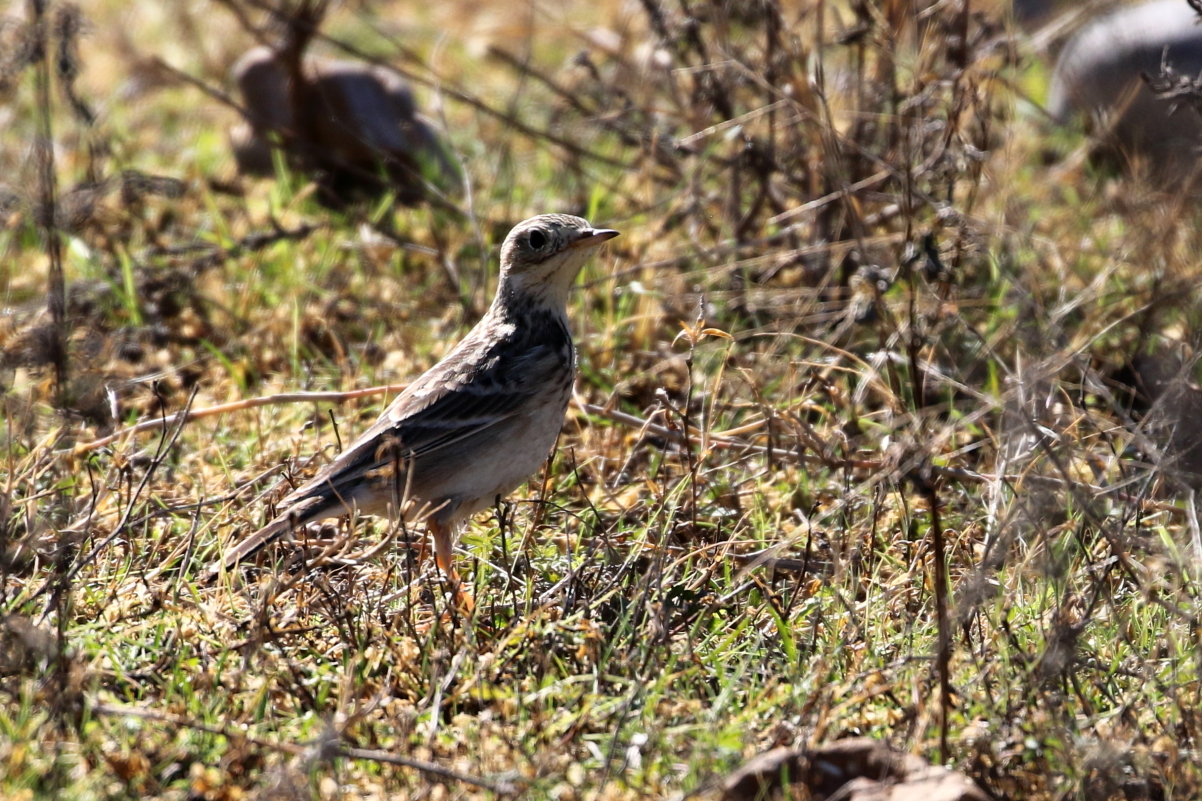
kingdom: Animalia
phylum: Chordata
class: Aves
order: Passeriformes
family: Motacillidae
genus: Anthus
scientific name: Anthus spragueii
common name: Sprague's pipit
